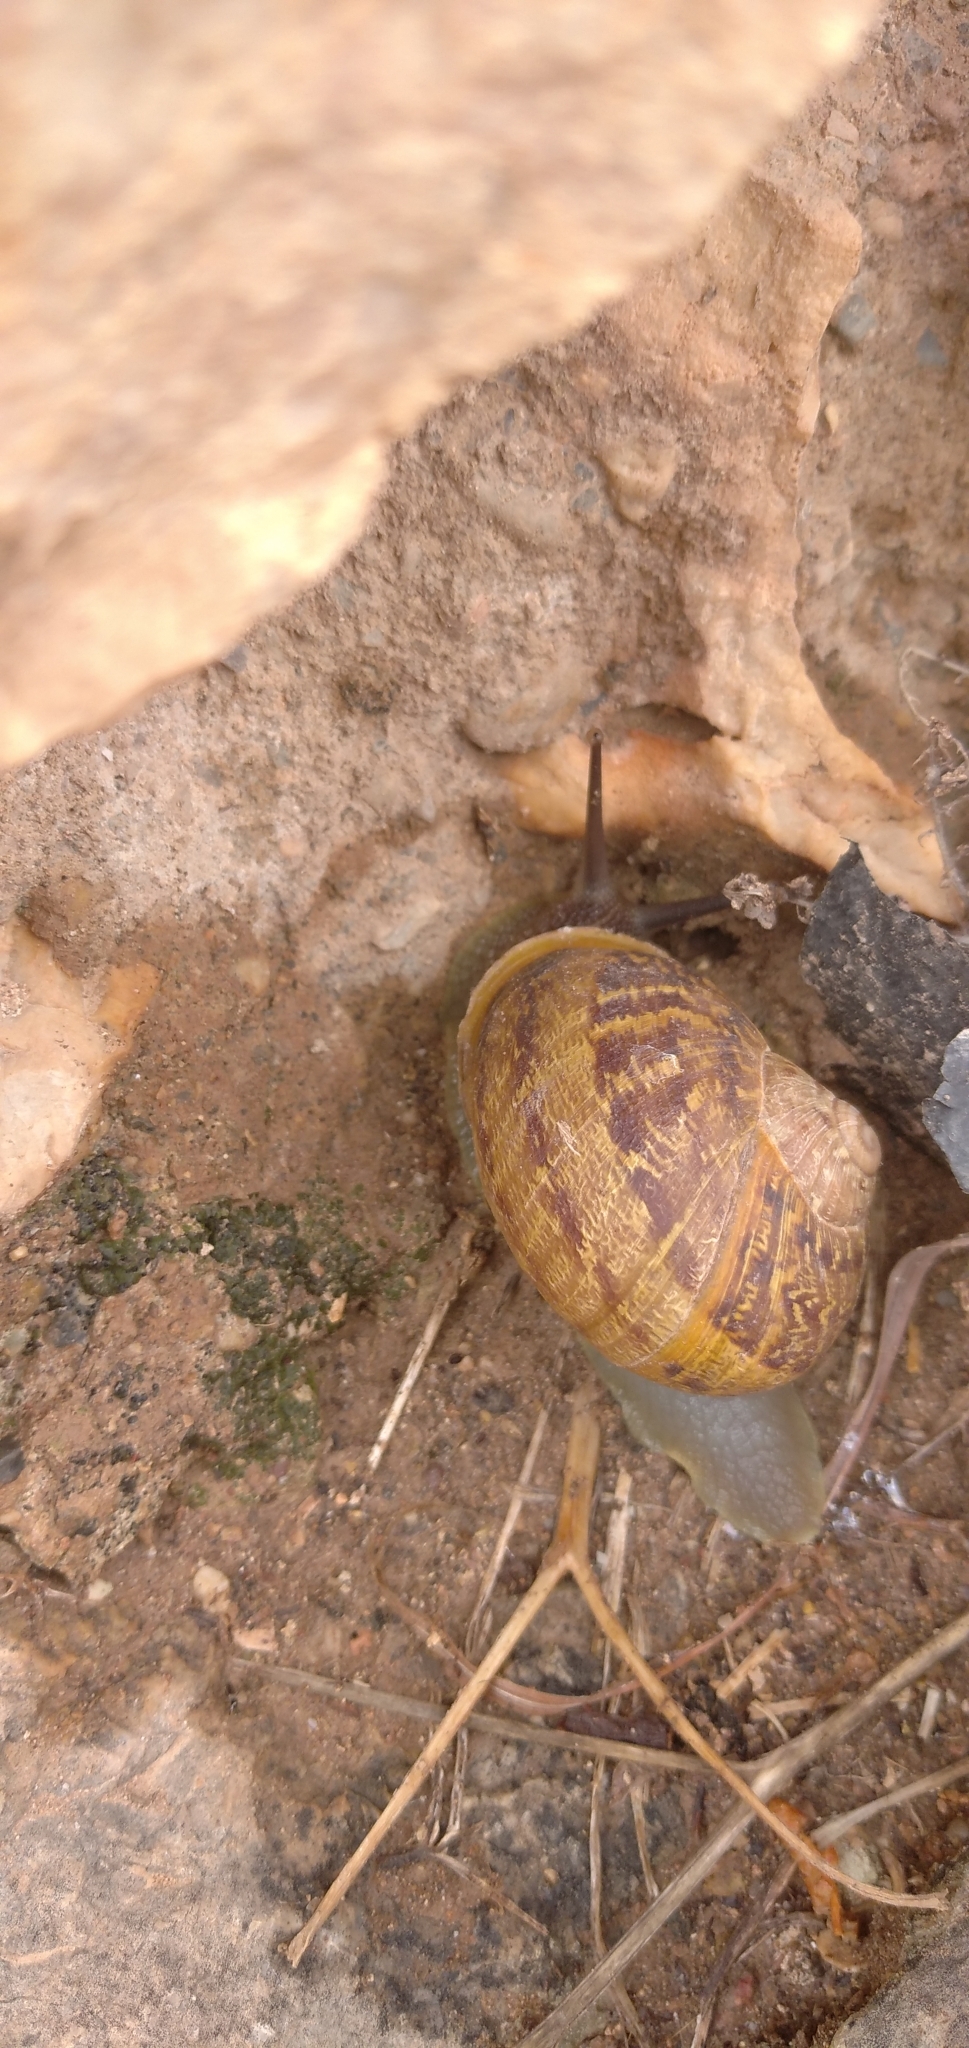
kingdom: Animalia
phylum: Mollusca
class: Gastropoda
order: Stylommatophora
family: Helicidae
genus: Cornu
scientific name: Cornu aspersum
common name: Brown garden snail
